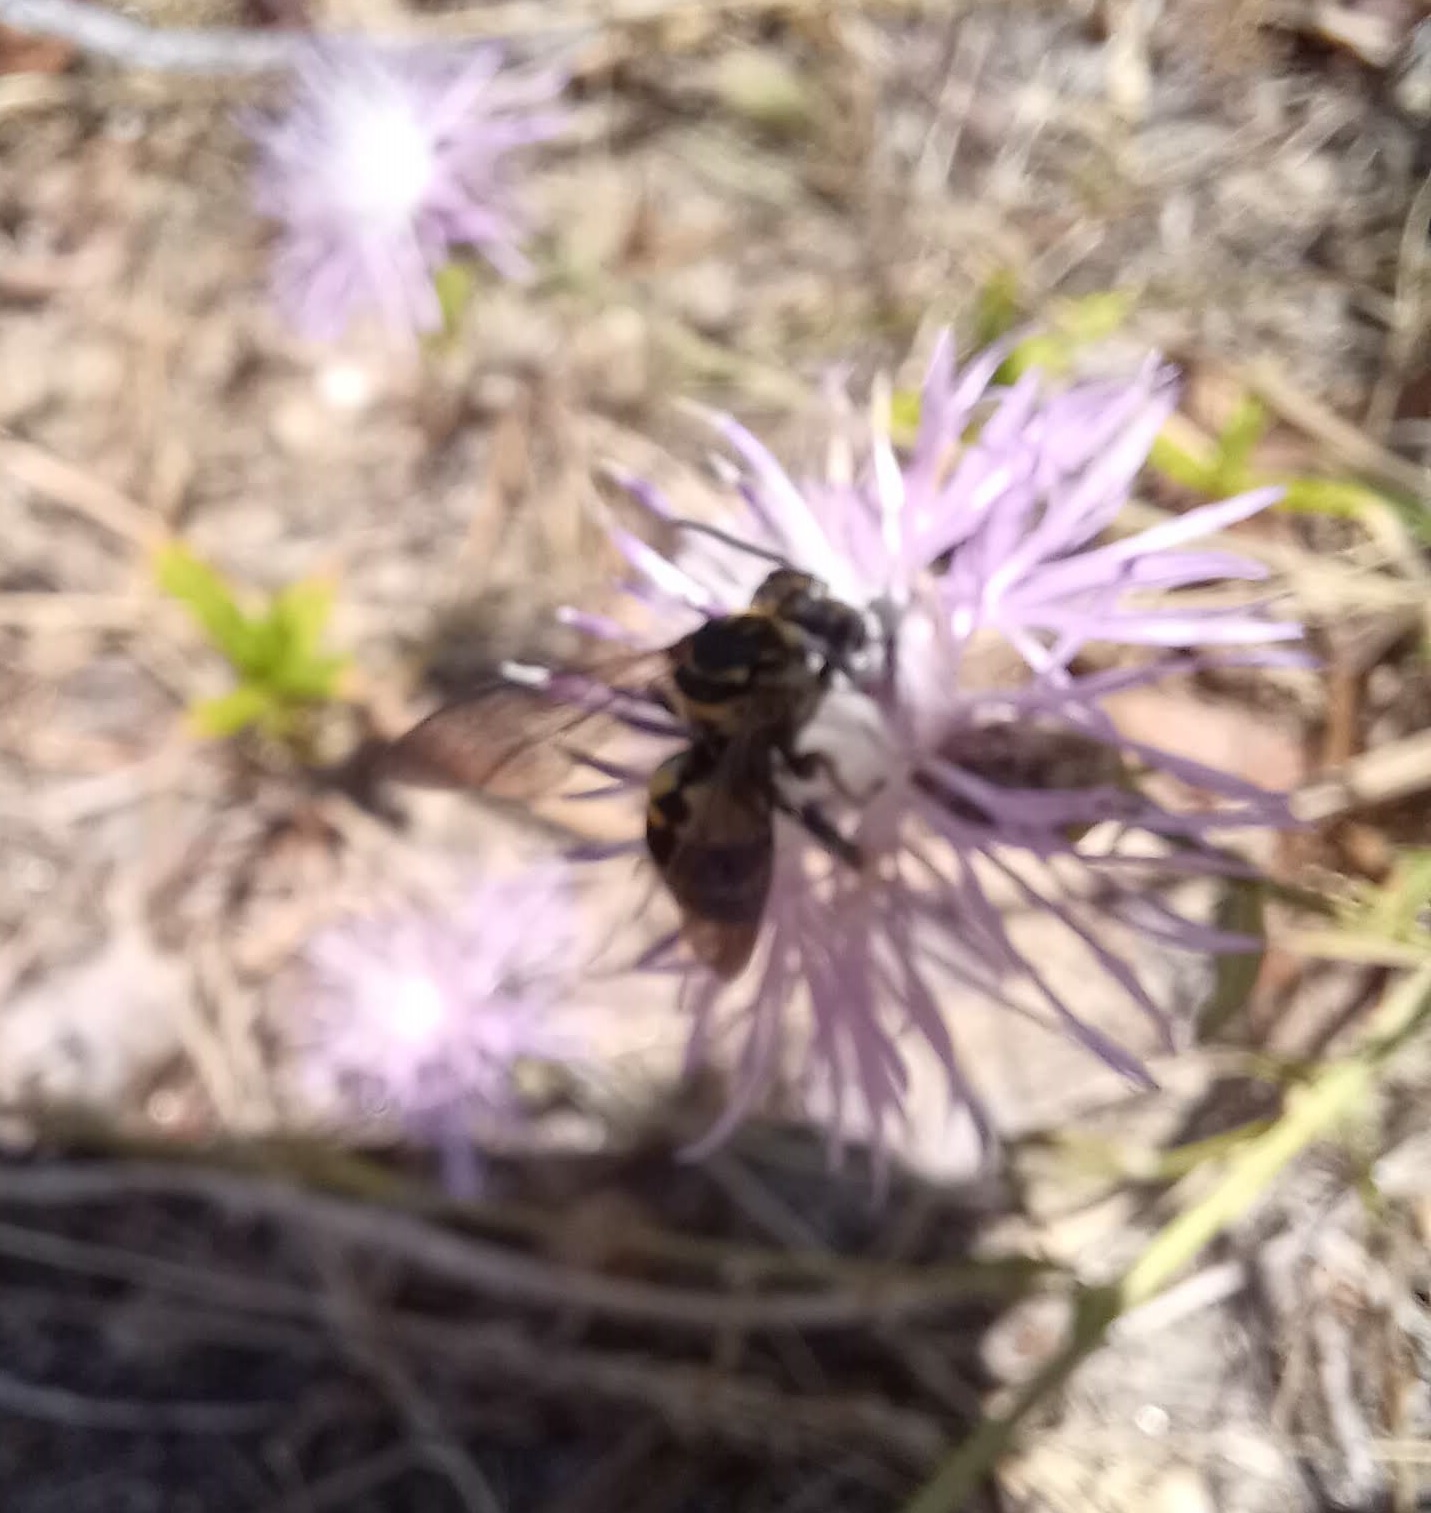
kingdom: Animalia
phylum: Arthropoda
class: Insecta
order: Hymenoptera
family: Apidae
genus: Triepeolus
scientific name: Triepeolus lunatus
